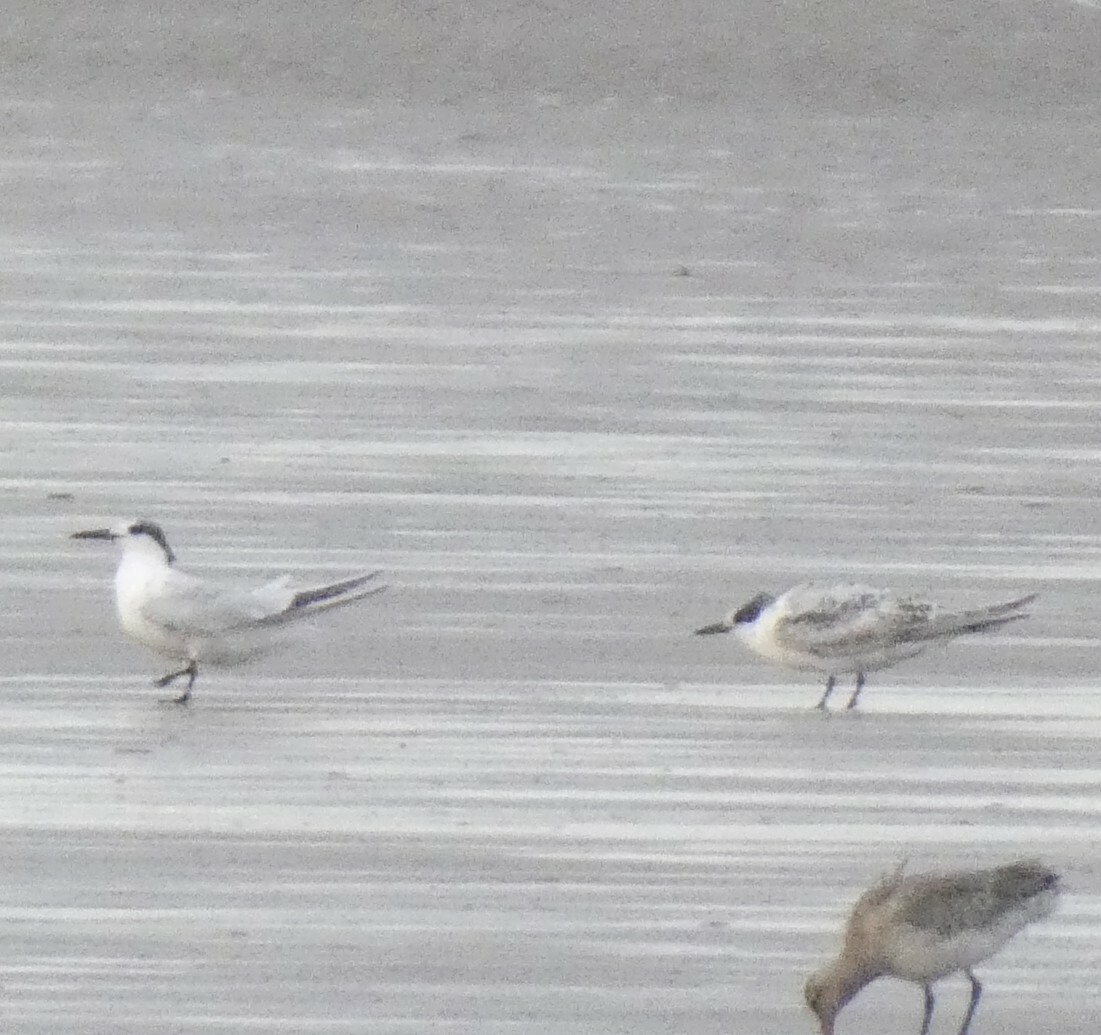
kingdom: Animalia
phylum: Chordata
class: Aves
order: Charadriiformes
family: Laridae
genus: Thalasseus
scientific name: Thalasseus sandvicensis
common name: Sandwich tern
